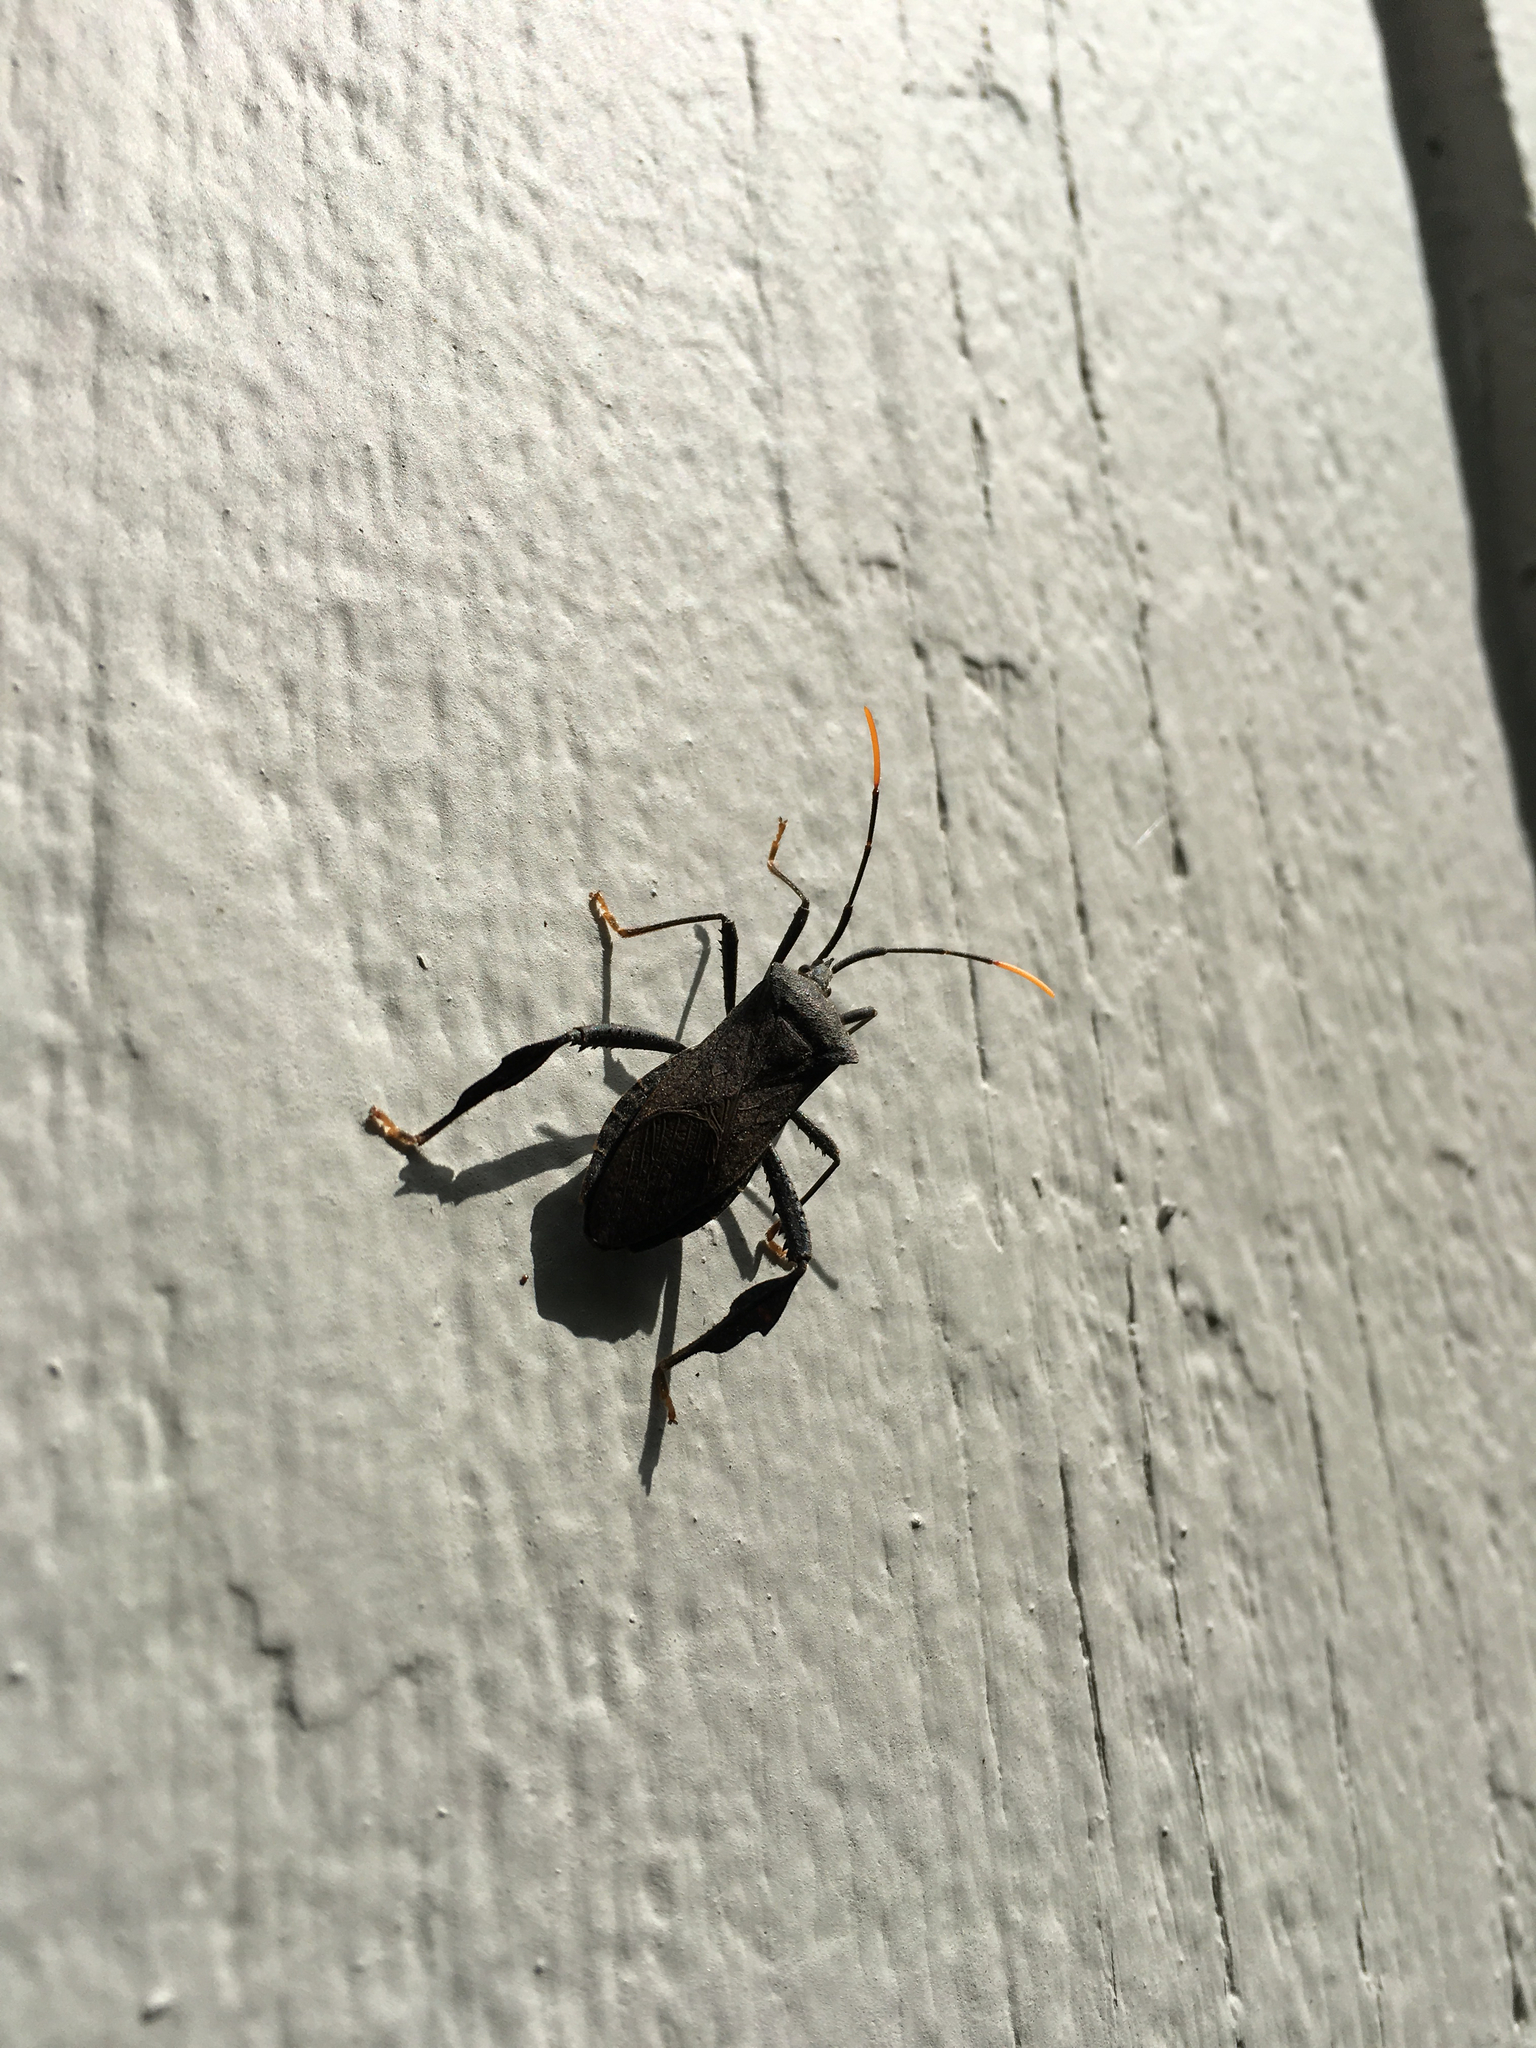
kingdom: Animalia
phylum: Arthropoda
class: Insecta
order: Hemiptera
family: Coreidae
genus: Acanthocephala
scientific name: Acanthocephala terminalis
